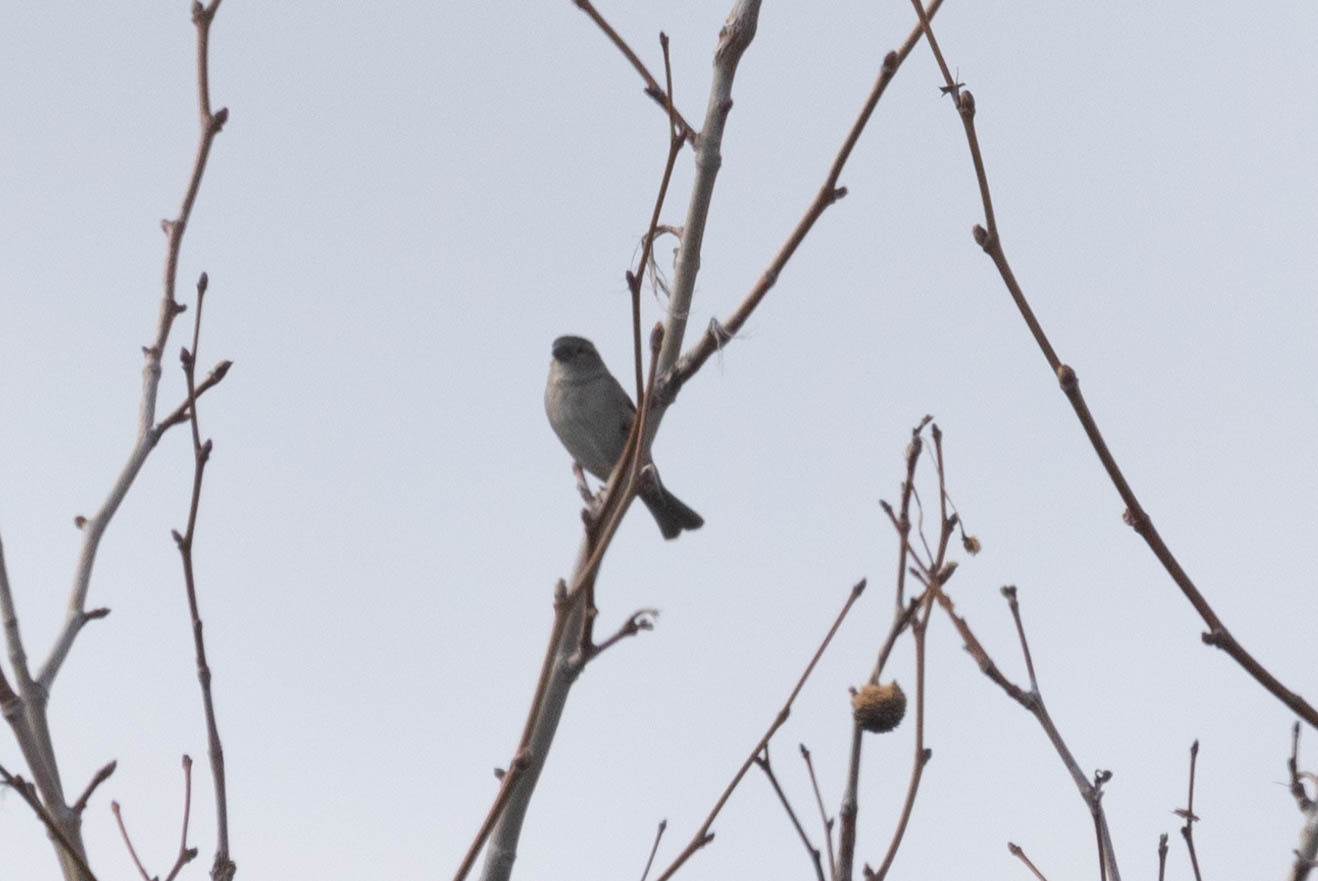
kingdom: Animalia
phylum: Chordata
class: Aves
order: Passeriformes
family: Passeridae
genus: Passer
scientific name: Passer domesticus
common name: House sparrow
